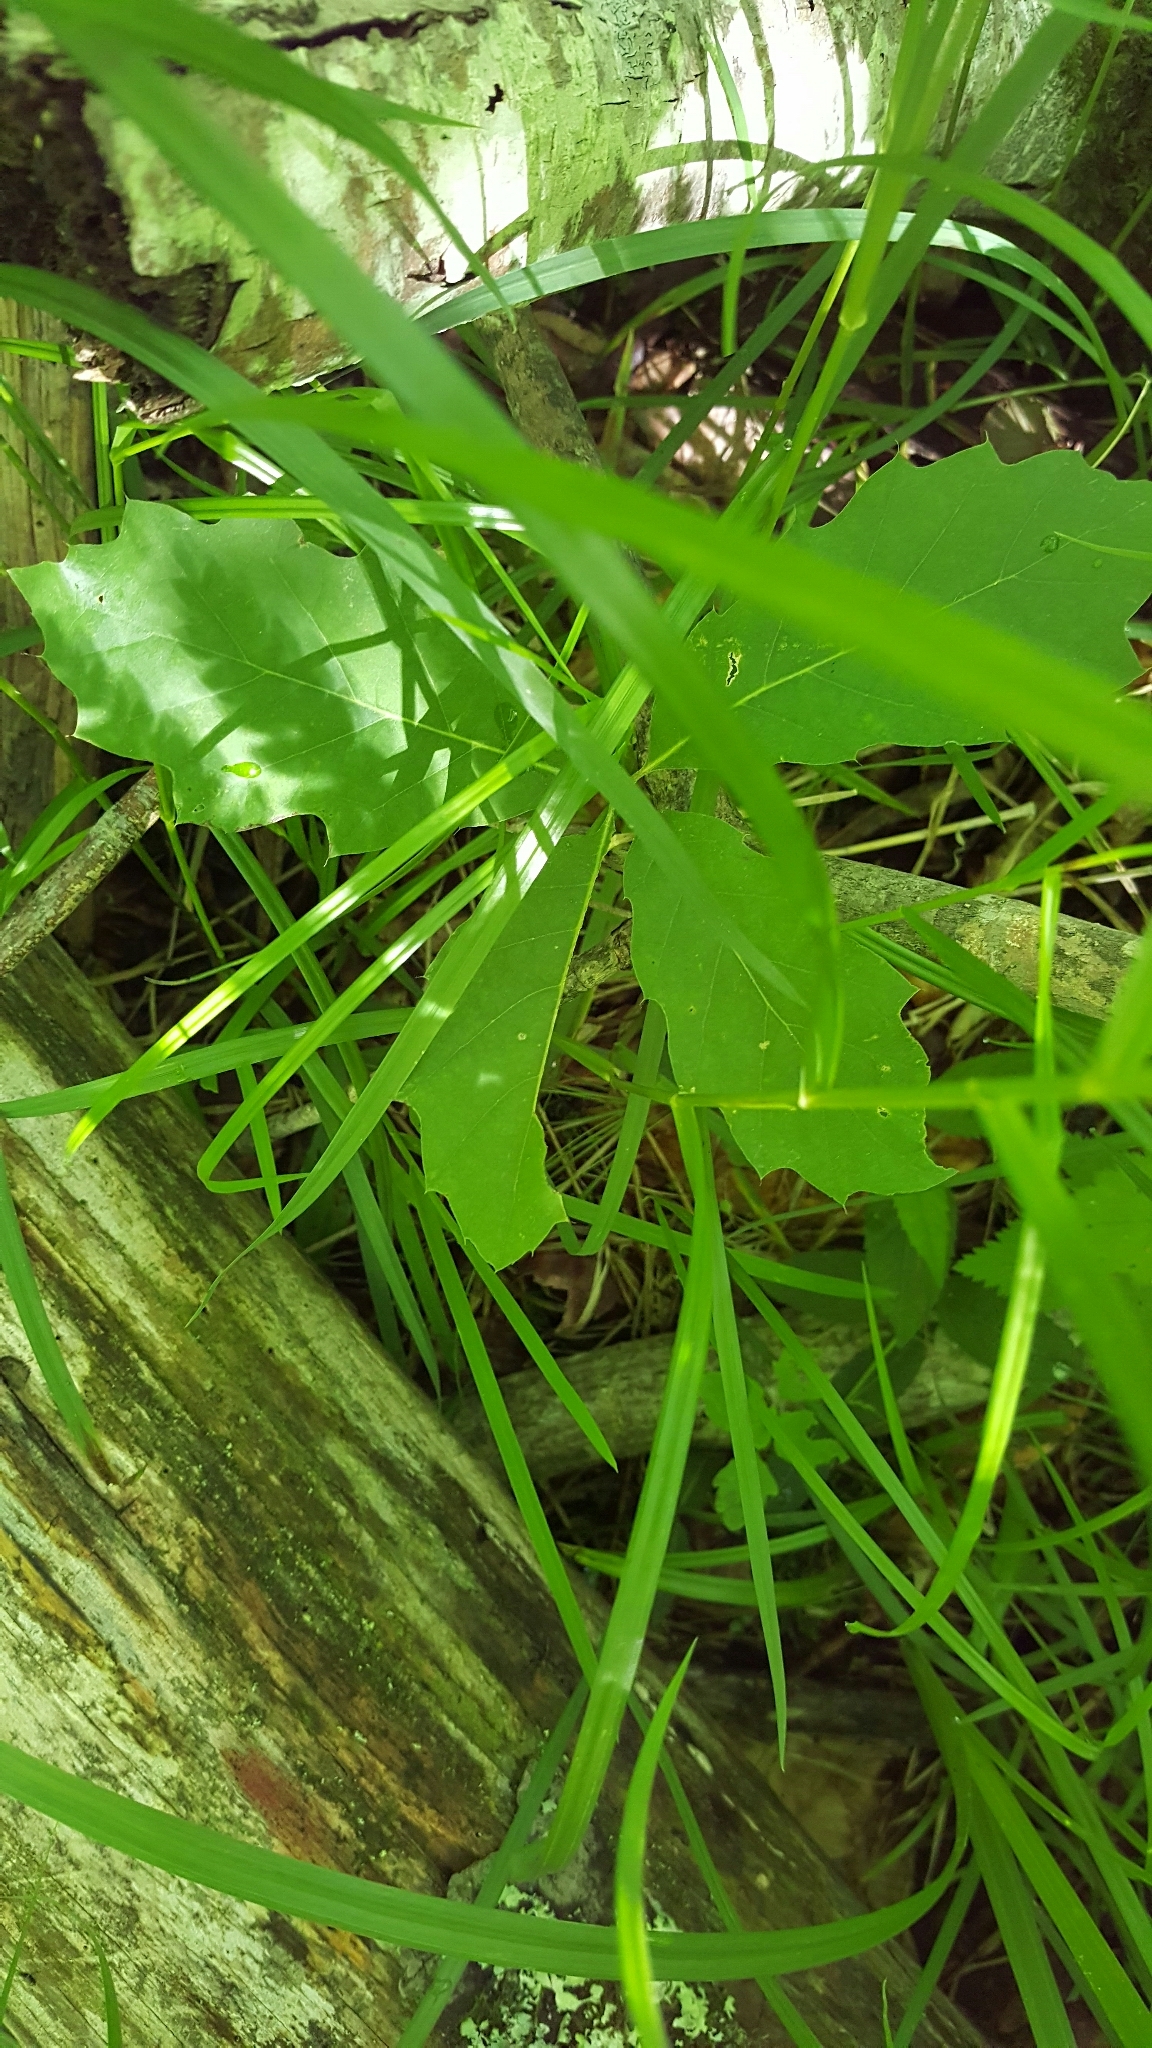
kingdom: Plantae
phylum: Tracheophyta
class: Magnoliopsida
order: Fagales
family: Fagaceae
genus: Quercus
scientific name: Quercus rubra
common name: Red oak
